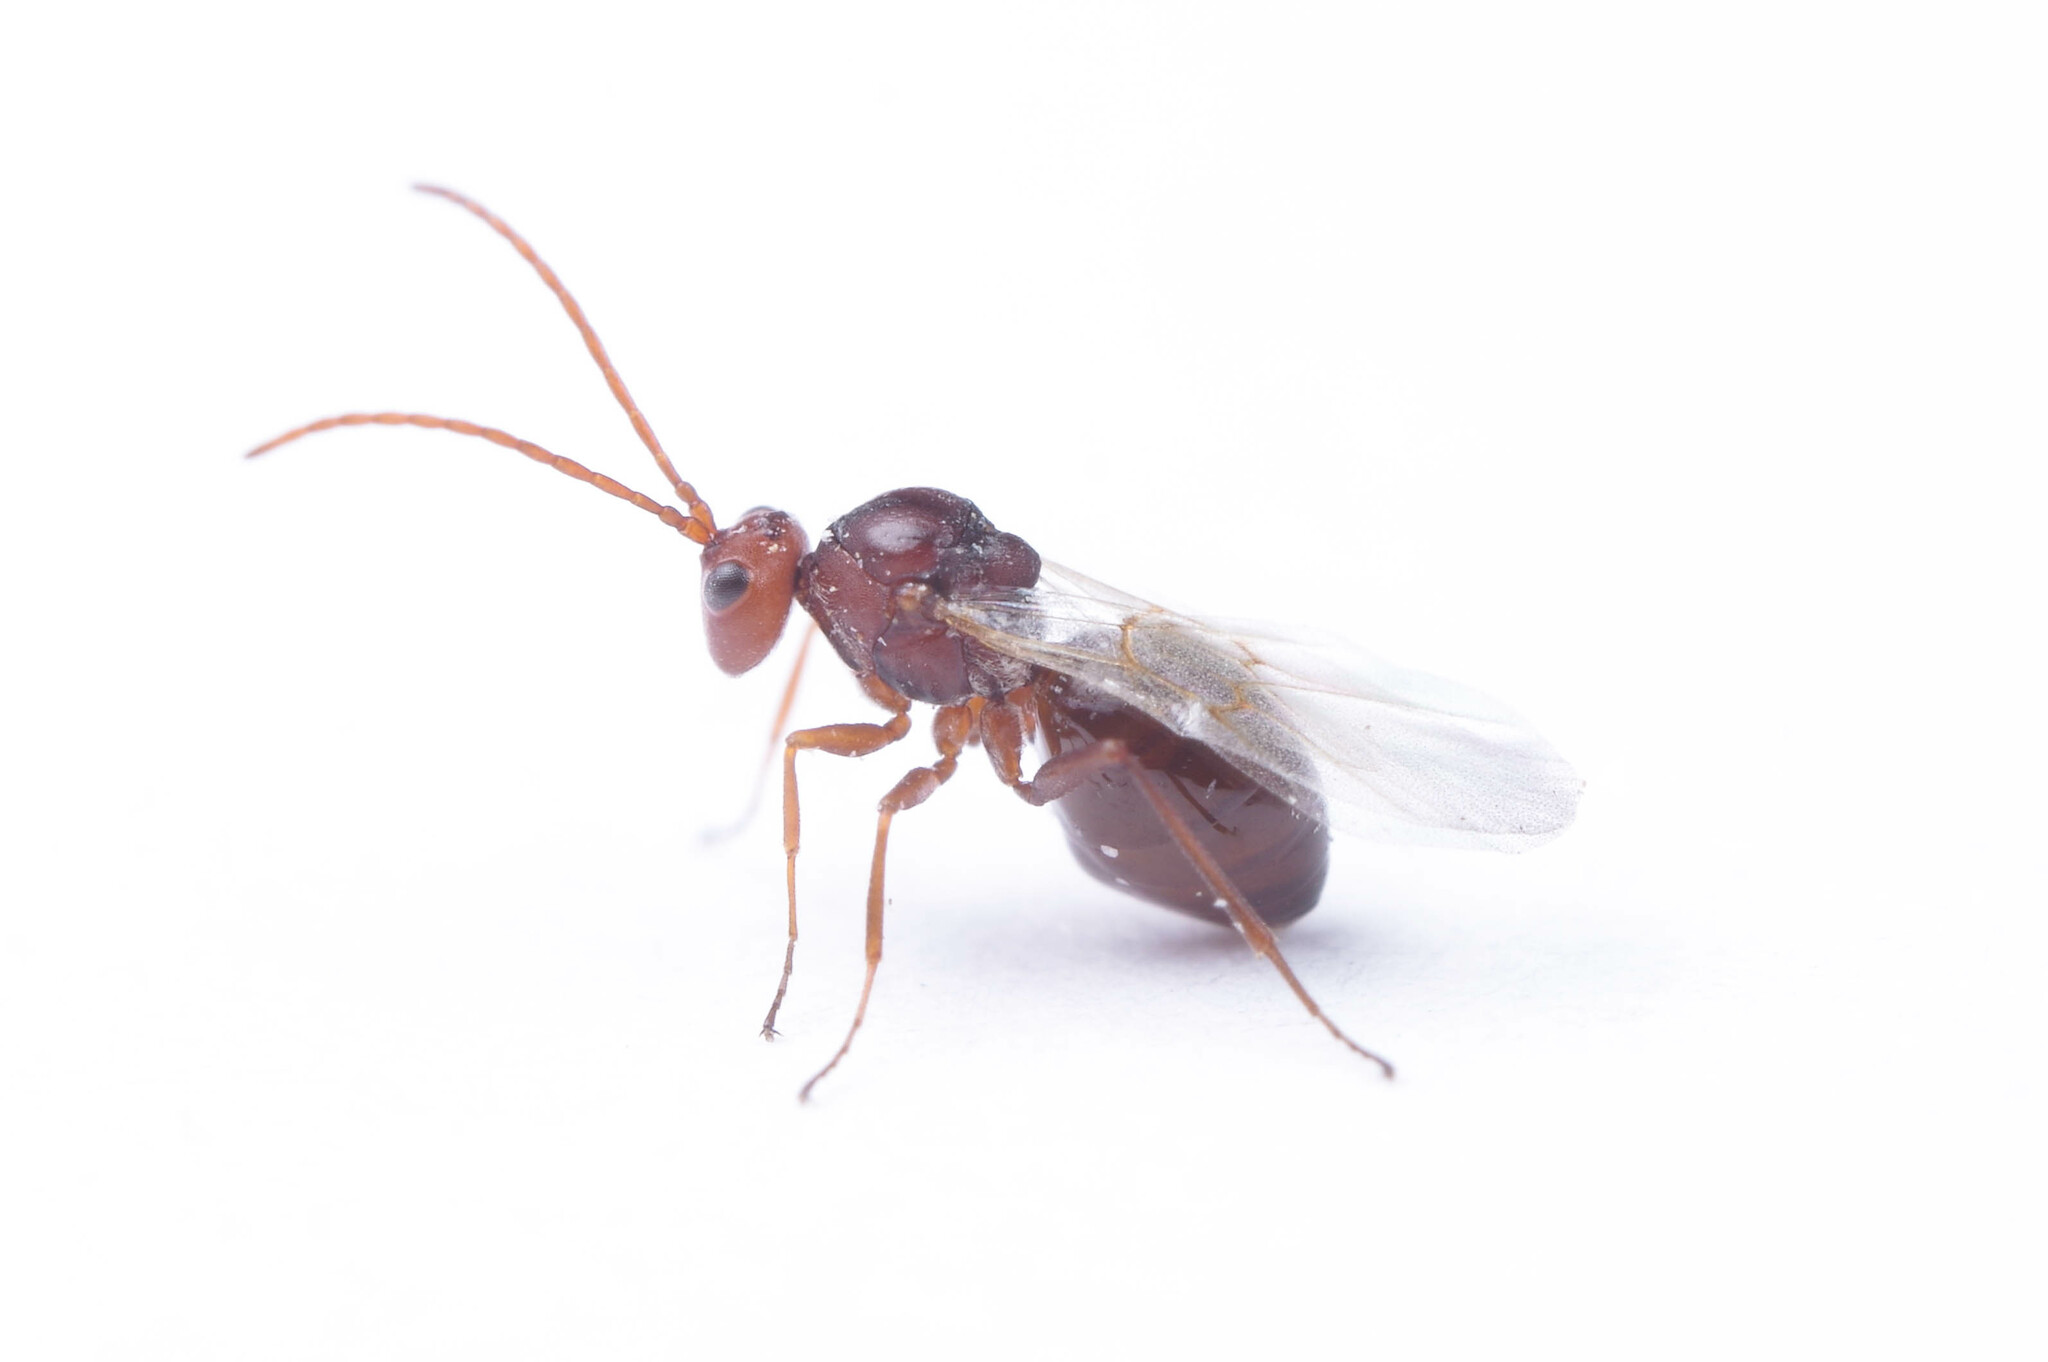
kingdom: Animalia
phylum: Arthropoda
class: Insecta
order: Hymenoptera
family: Cynipidae
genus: Antistrophus
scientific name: Antistrophus
